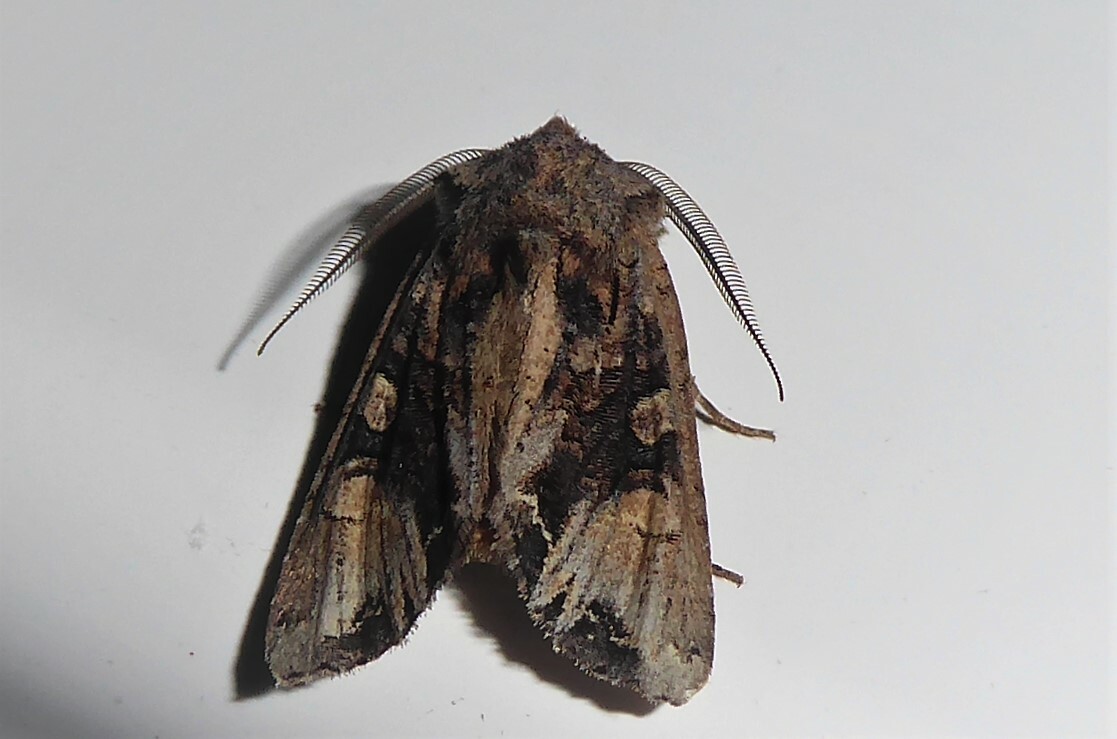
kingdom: Animalia
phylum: Arthropoda
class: Insecta
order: Lepidoptera
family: Noctuidae
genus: Ichneutica
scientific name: Ichneutica
